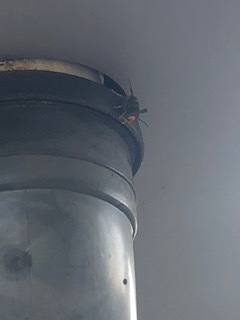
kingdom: Animalia
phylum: Arthropoda
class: Insecta
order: Hymenoptera
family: Vespidae
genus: Vespa
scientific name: Vespa velutina
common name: Asian hornet
